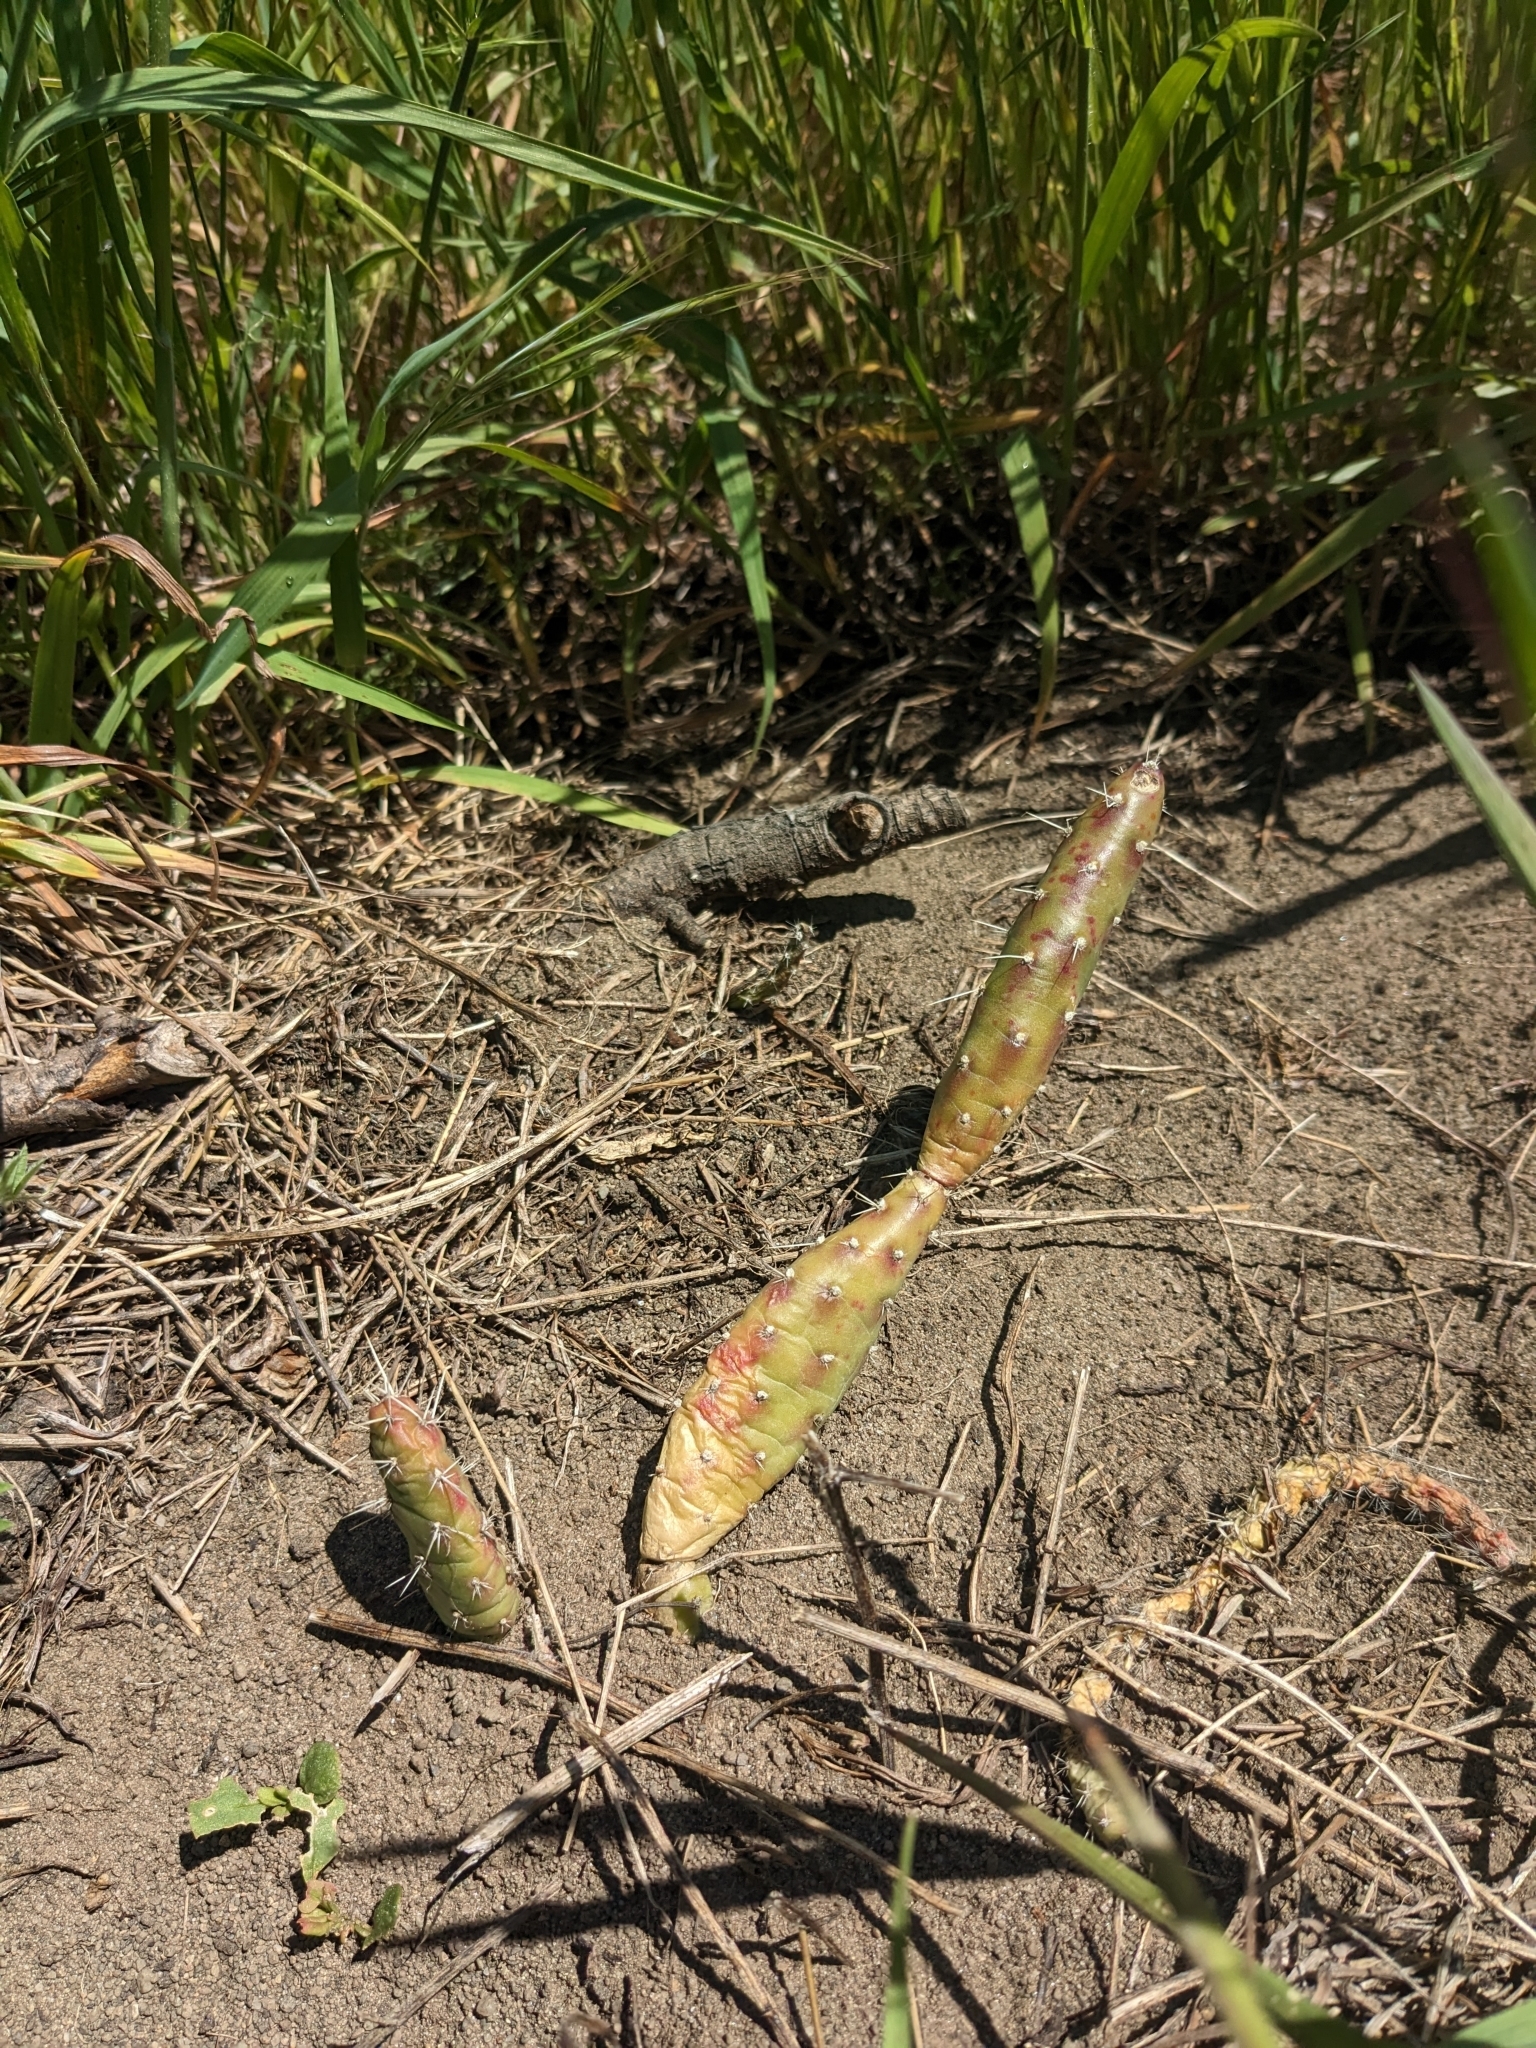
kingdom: Plantae
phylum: Tracheophyta
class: Magnoliopsida
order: Caryophyllales
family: Cactaceae
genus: Opuntia
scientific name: Opuntia fragilis
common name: Brittle cactus
